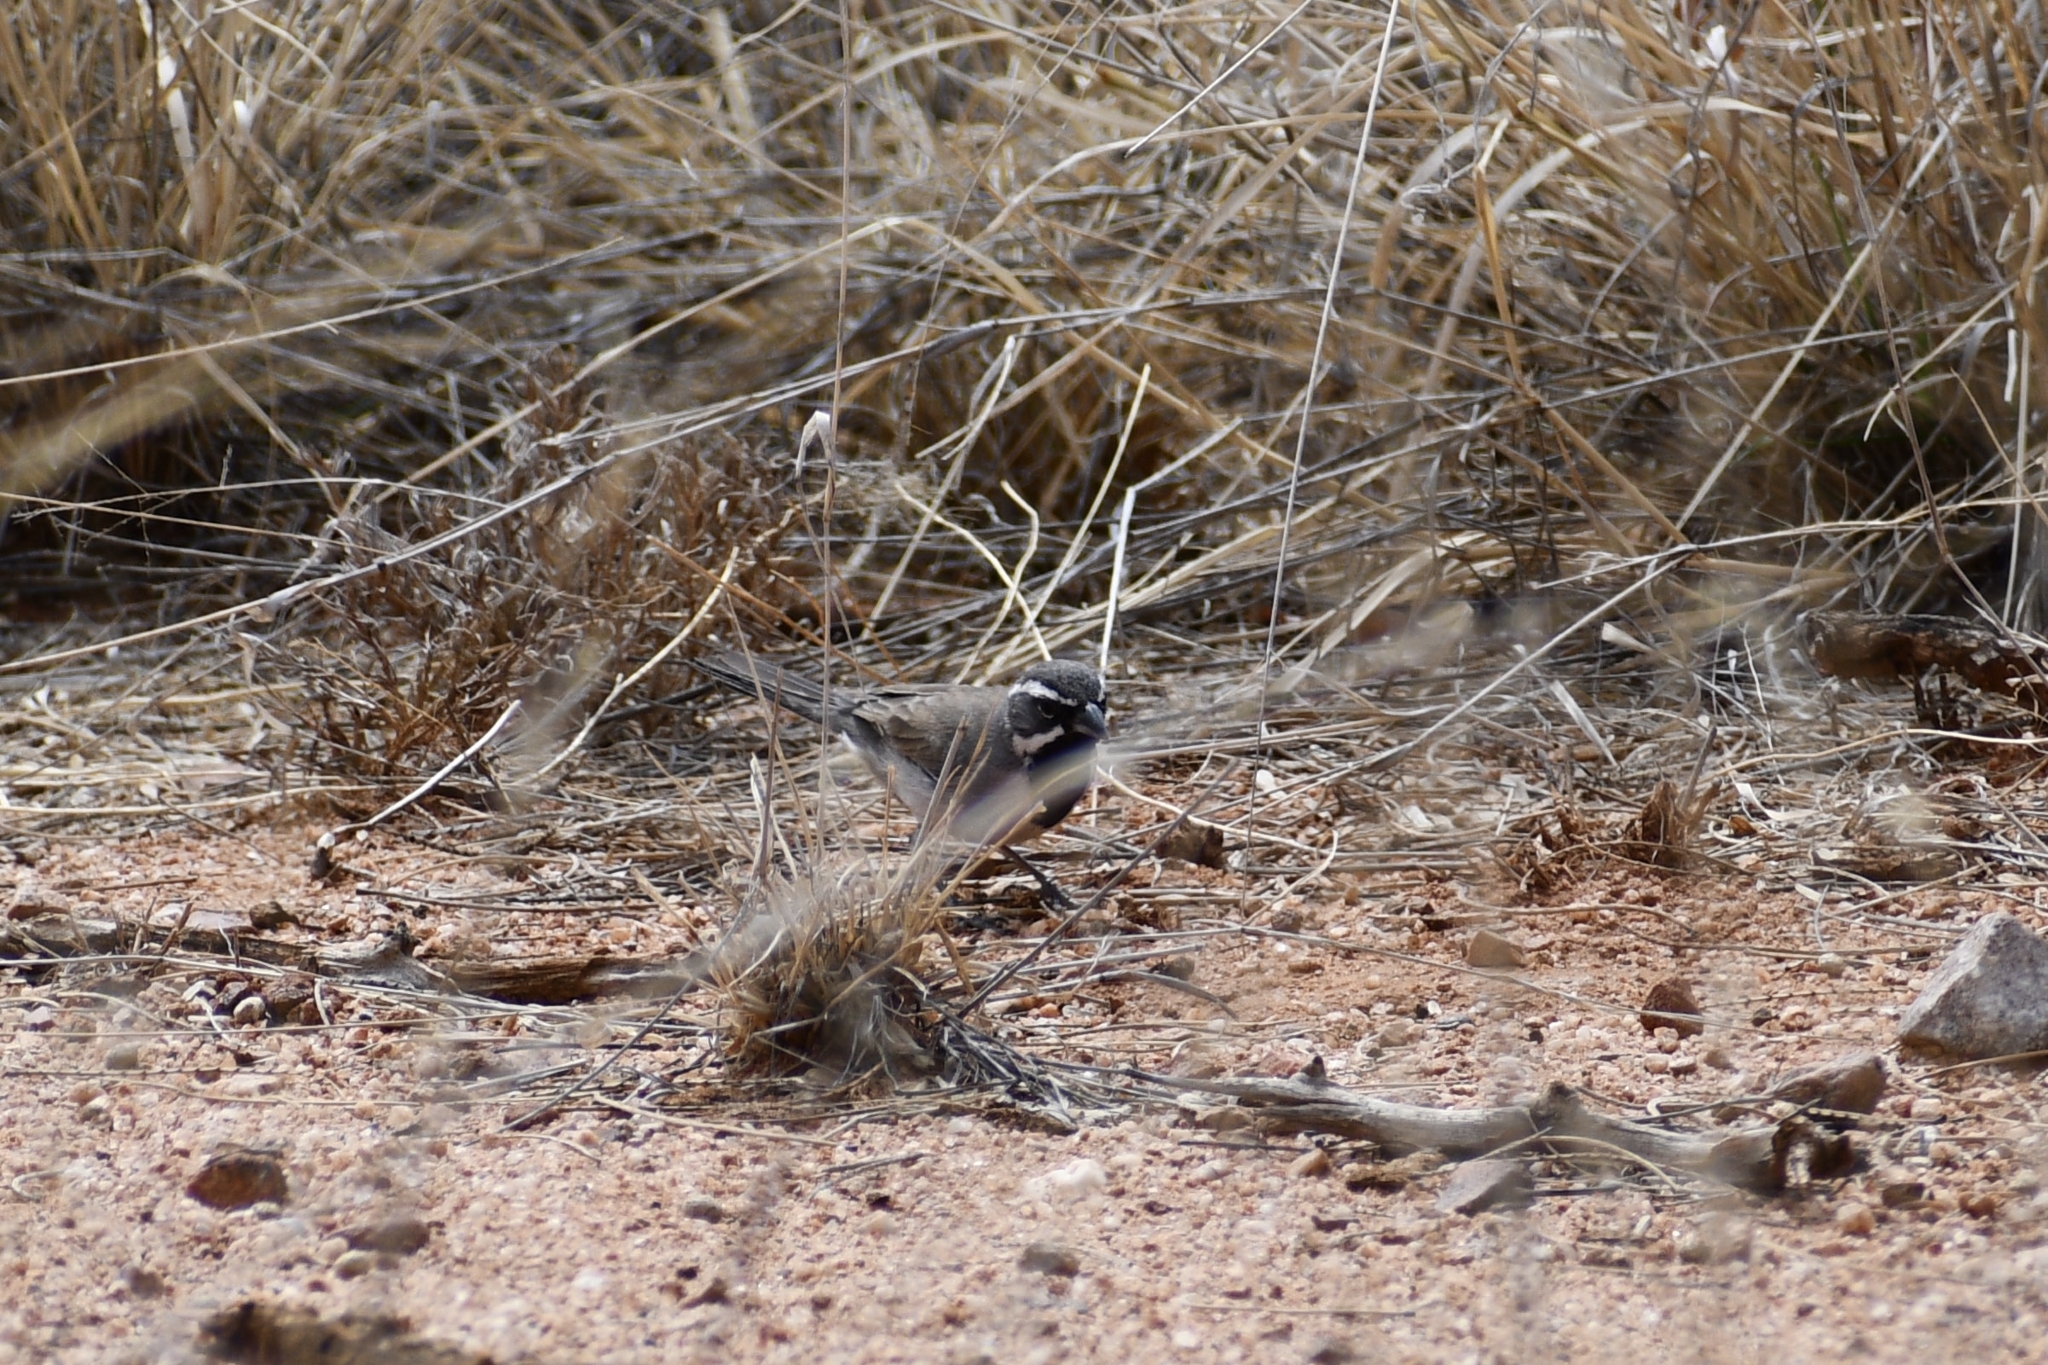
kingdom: Animalia
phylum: Chordata
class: Aves
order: Passeriformes
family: Passerellidae
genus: Amphispiza
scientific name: Amphispiza bilineata
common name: Black-throated sparrow
